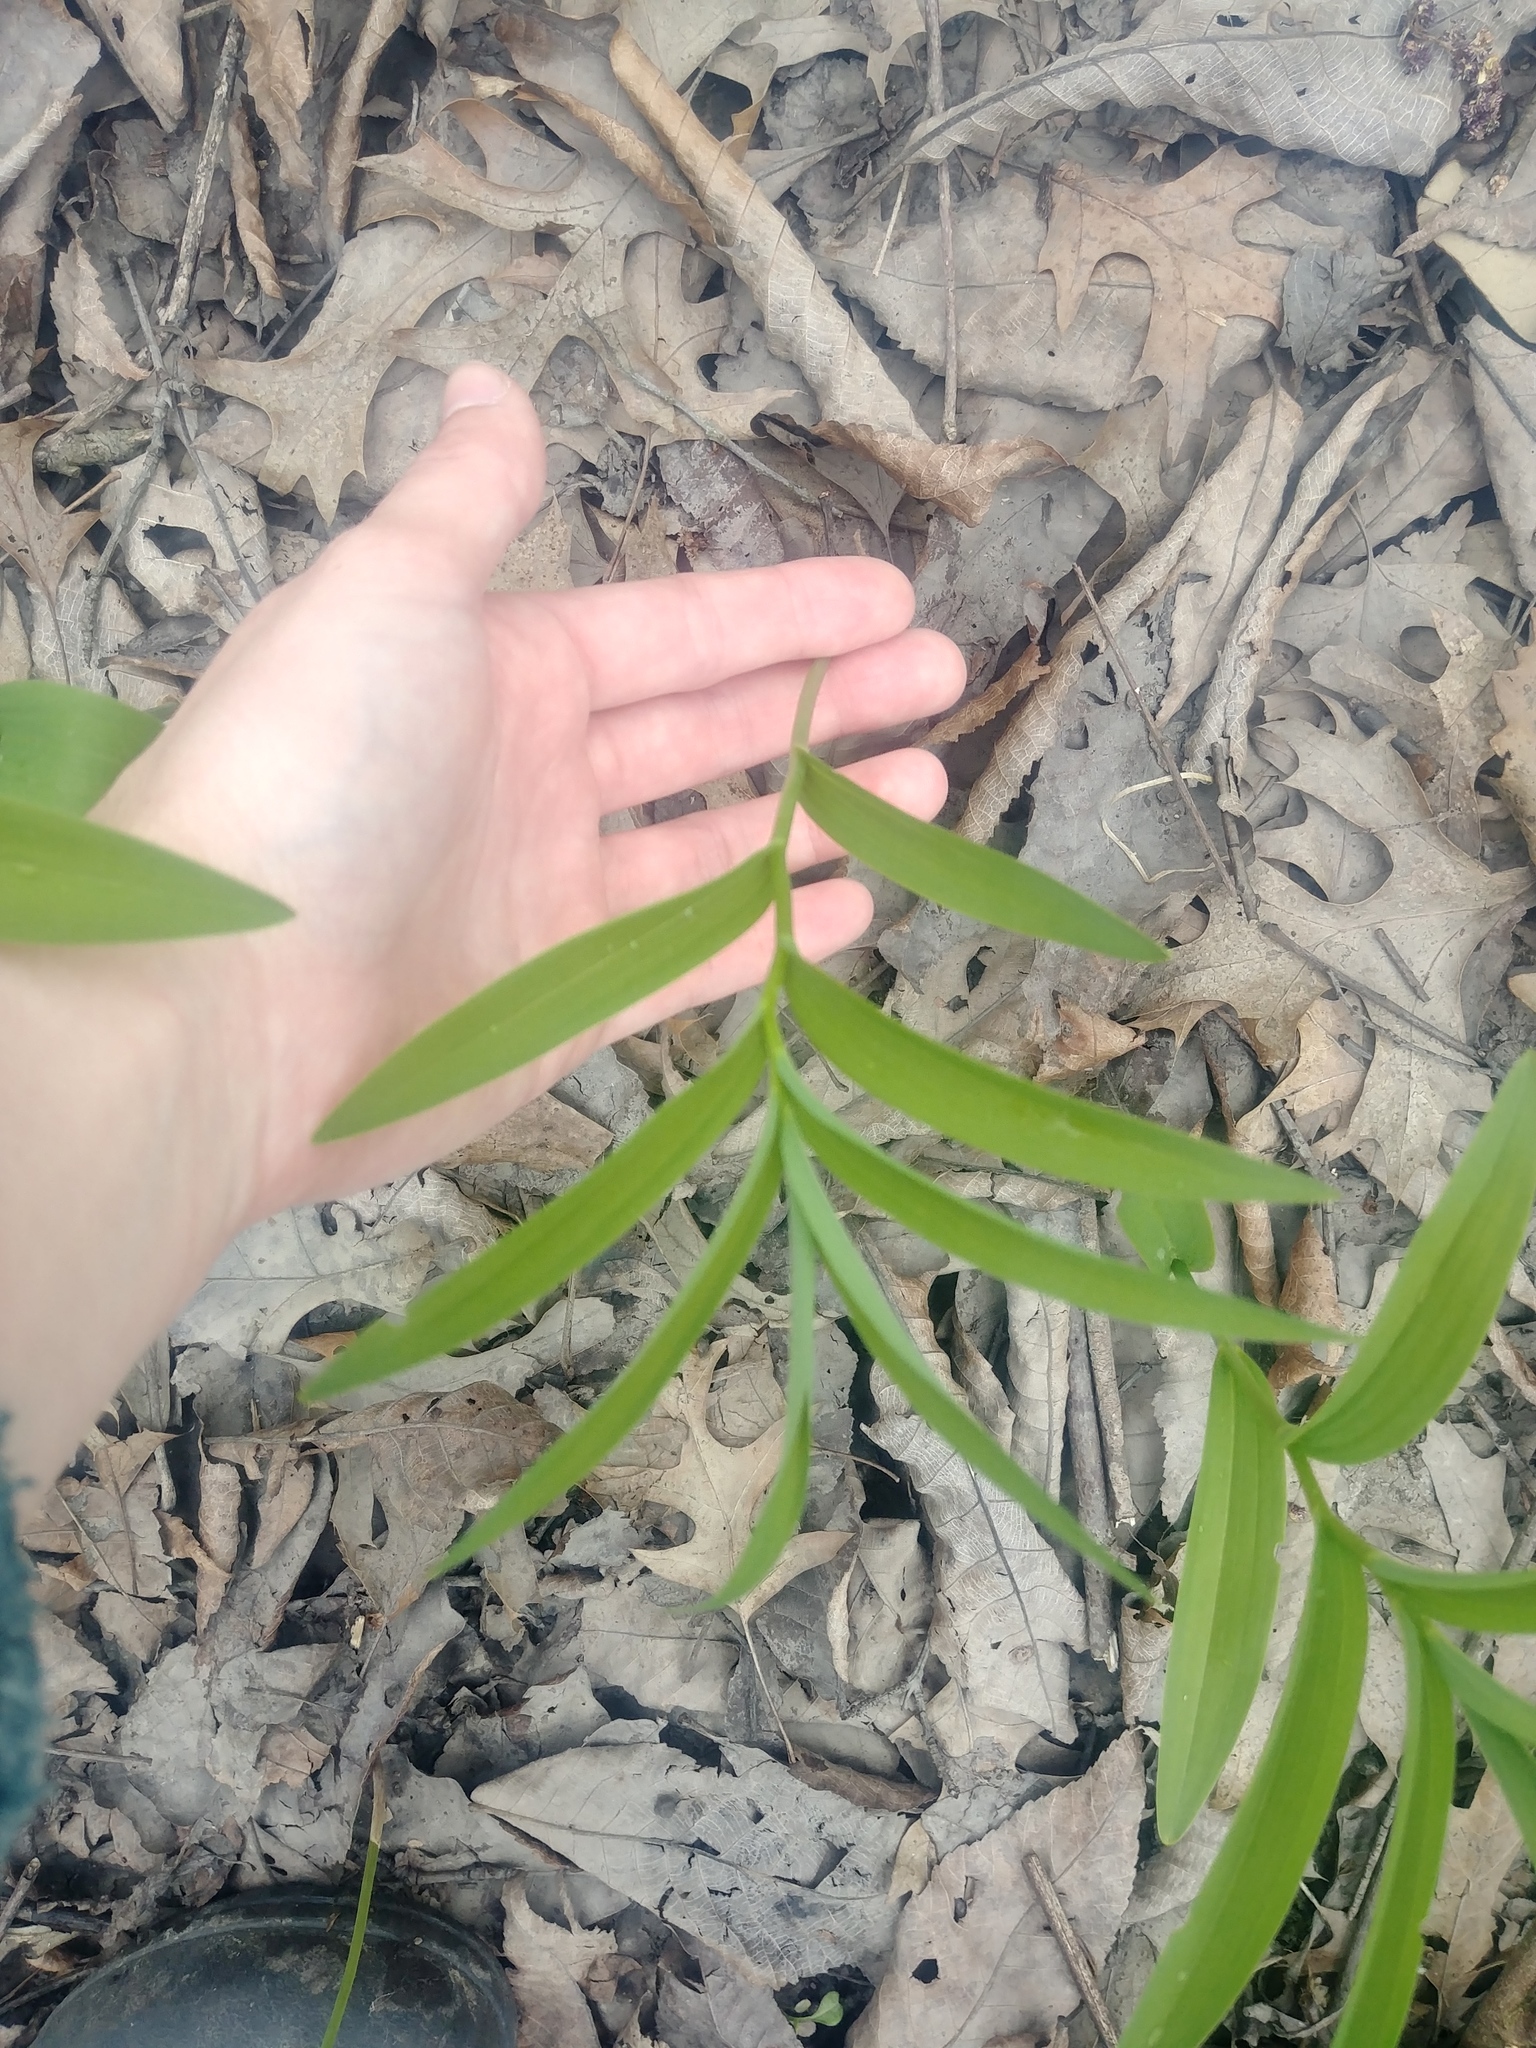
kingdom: Plantae
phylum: Tracheophyta
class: Liliopsida
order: Asparagales
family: Asparagaceae
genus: Maianthemum
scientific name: Maianthemum stellatum
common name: Little false solomon's seal
